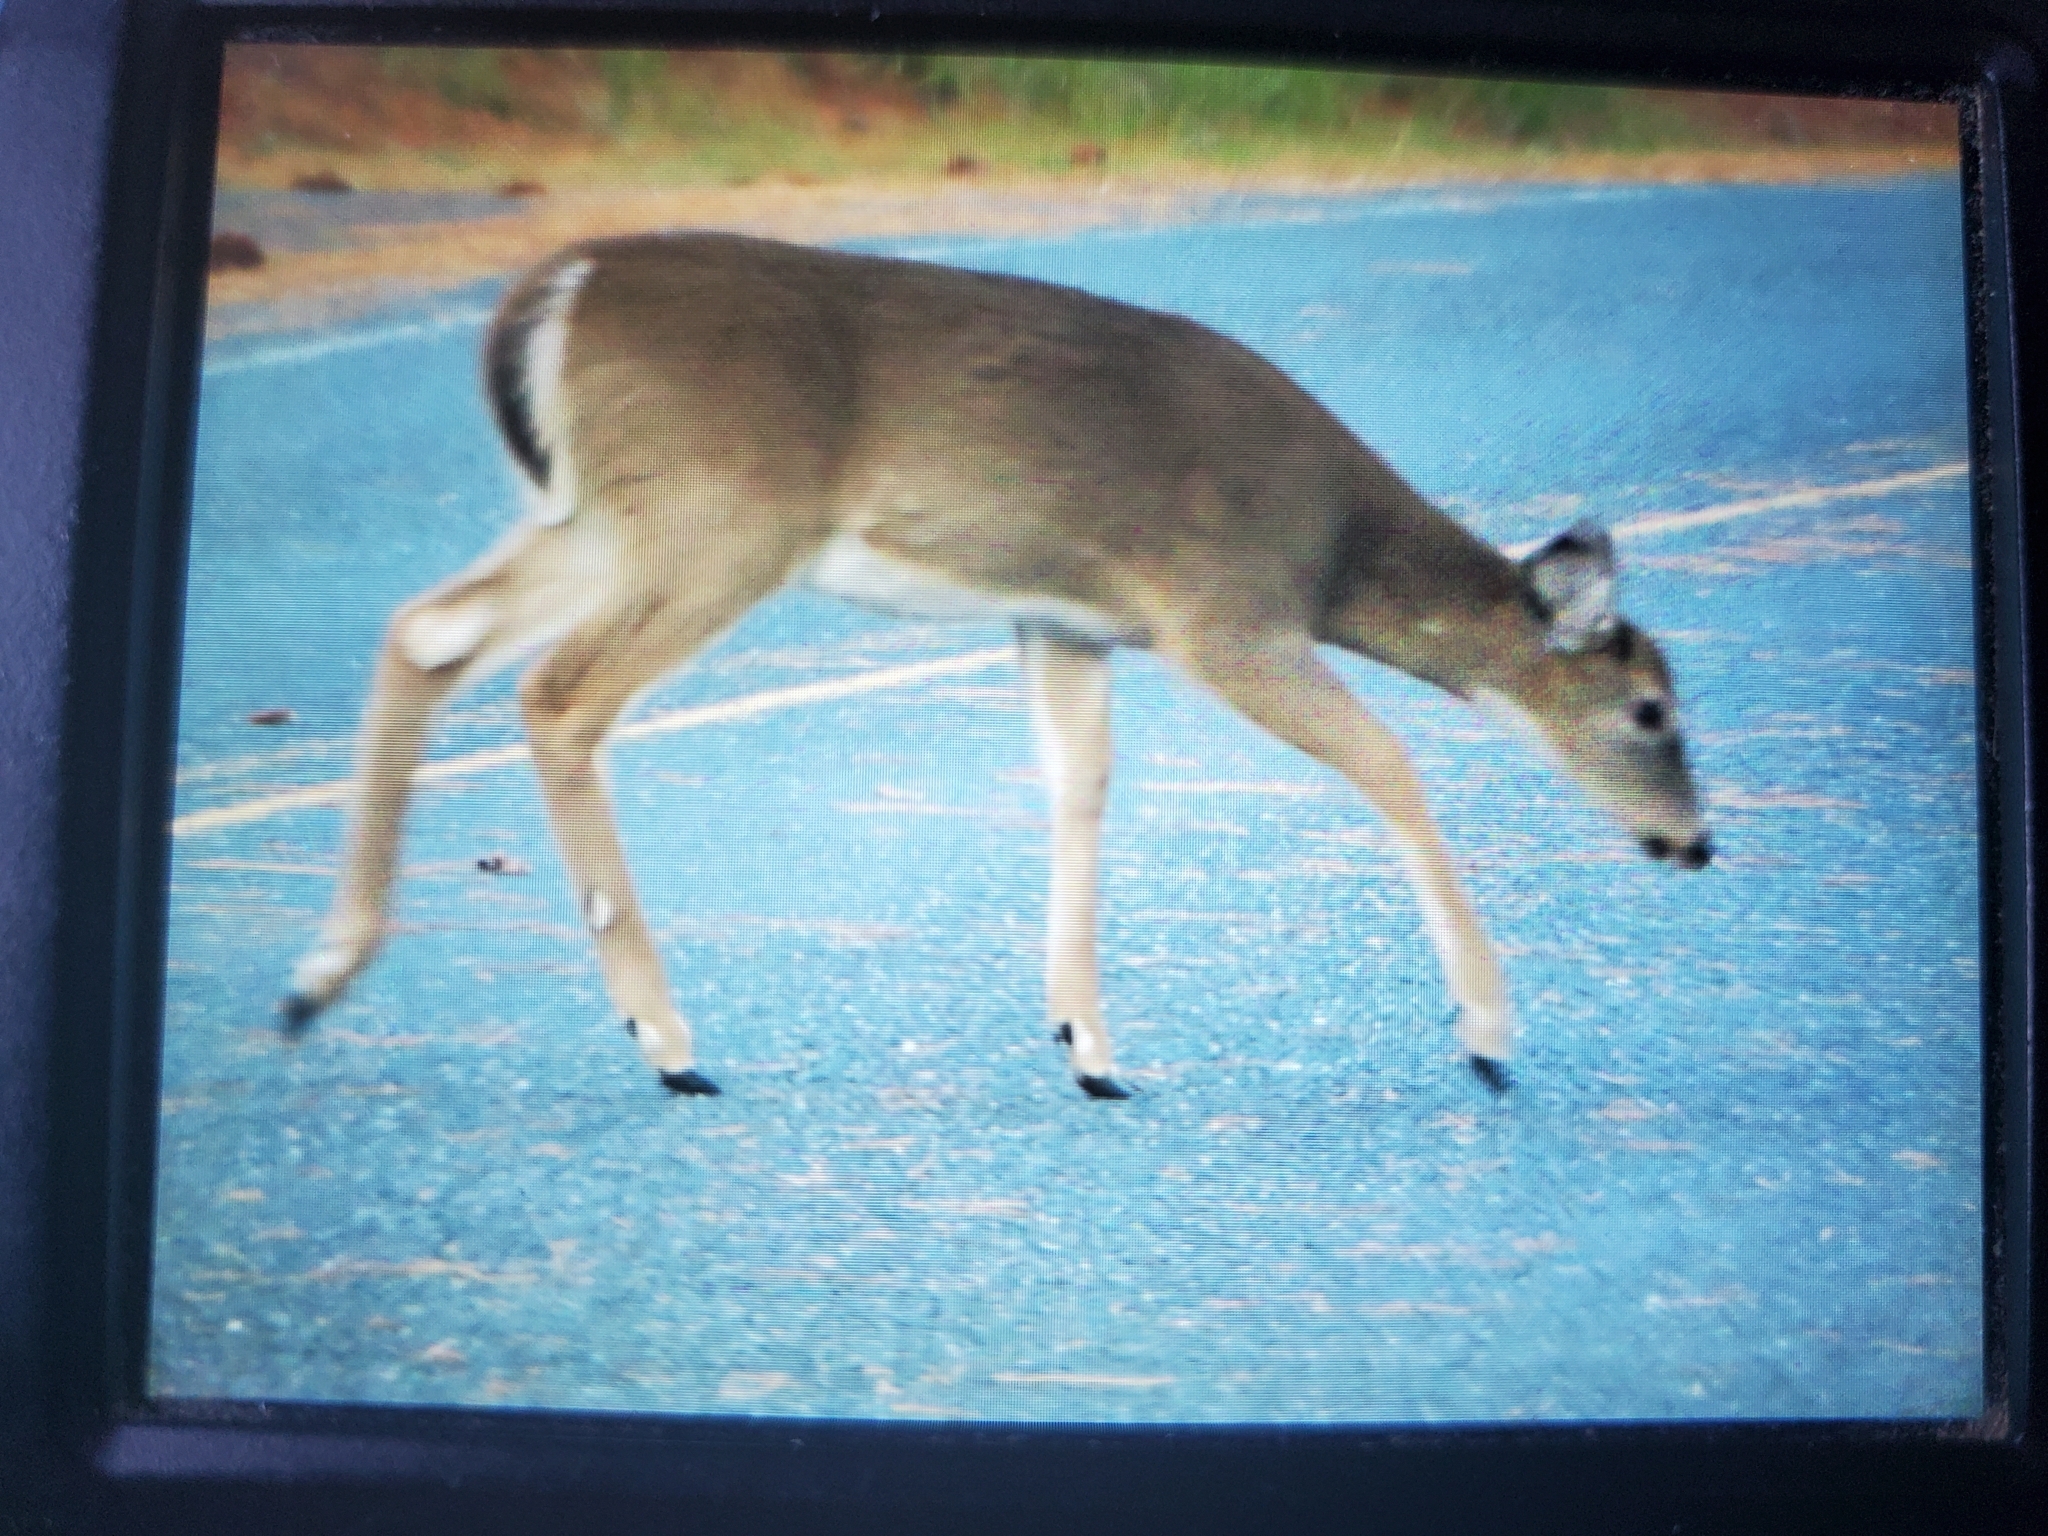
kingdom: Animalia
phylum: Chordata
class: Mammalia
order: Artiodactyla
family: Cervidae
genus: Odocoileus
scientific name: Odocoileus virginianus
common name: White-tailed deer
